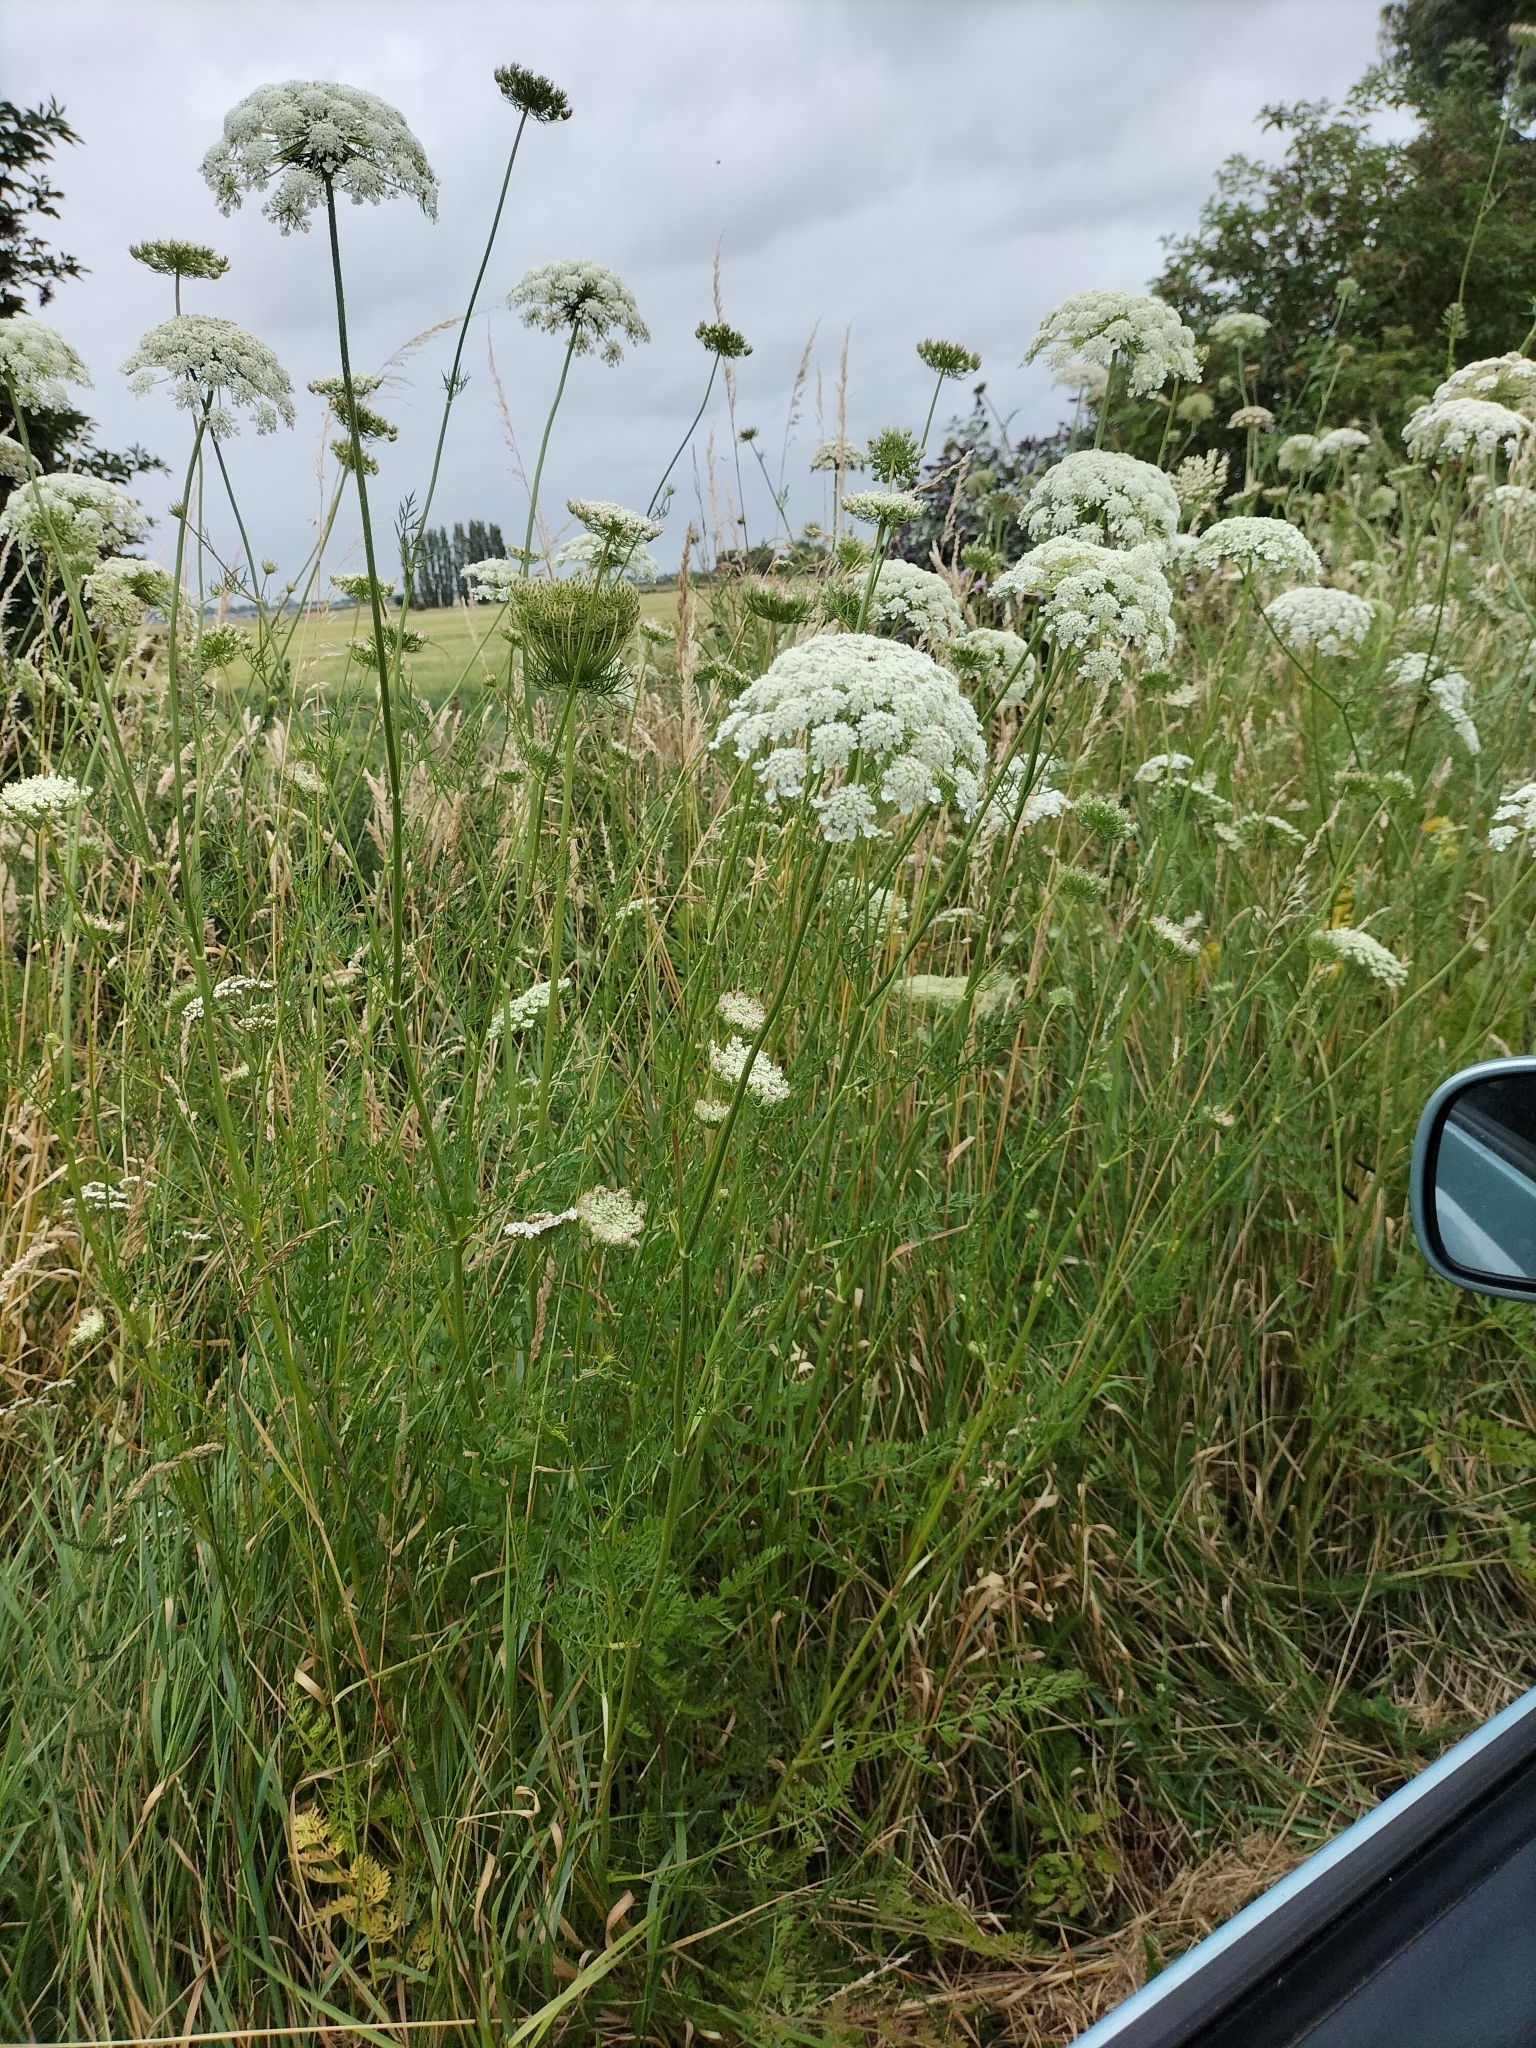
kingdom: Plantae
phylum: Tracheophyta
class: Magnoliopsida
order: Apiales
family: Apiaceae
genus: Daucus
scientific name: Daucus carota
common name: Wild carrot
